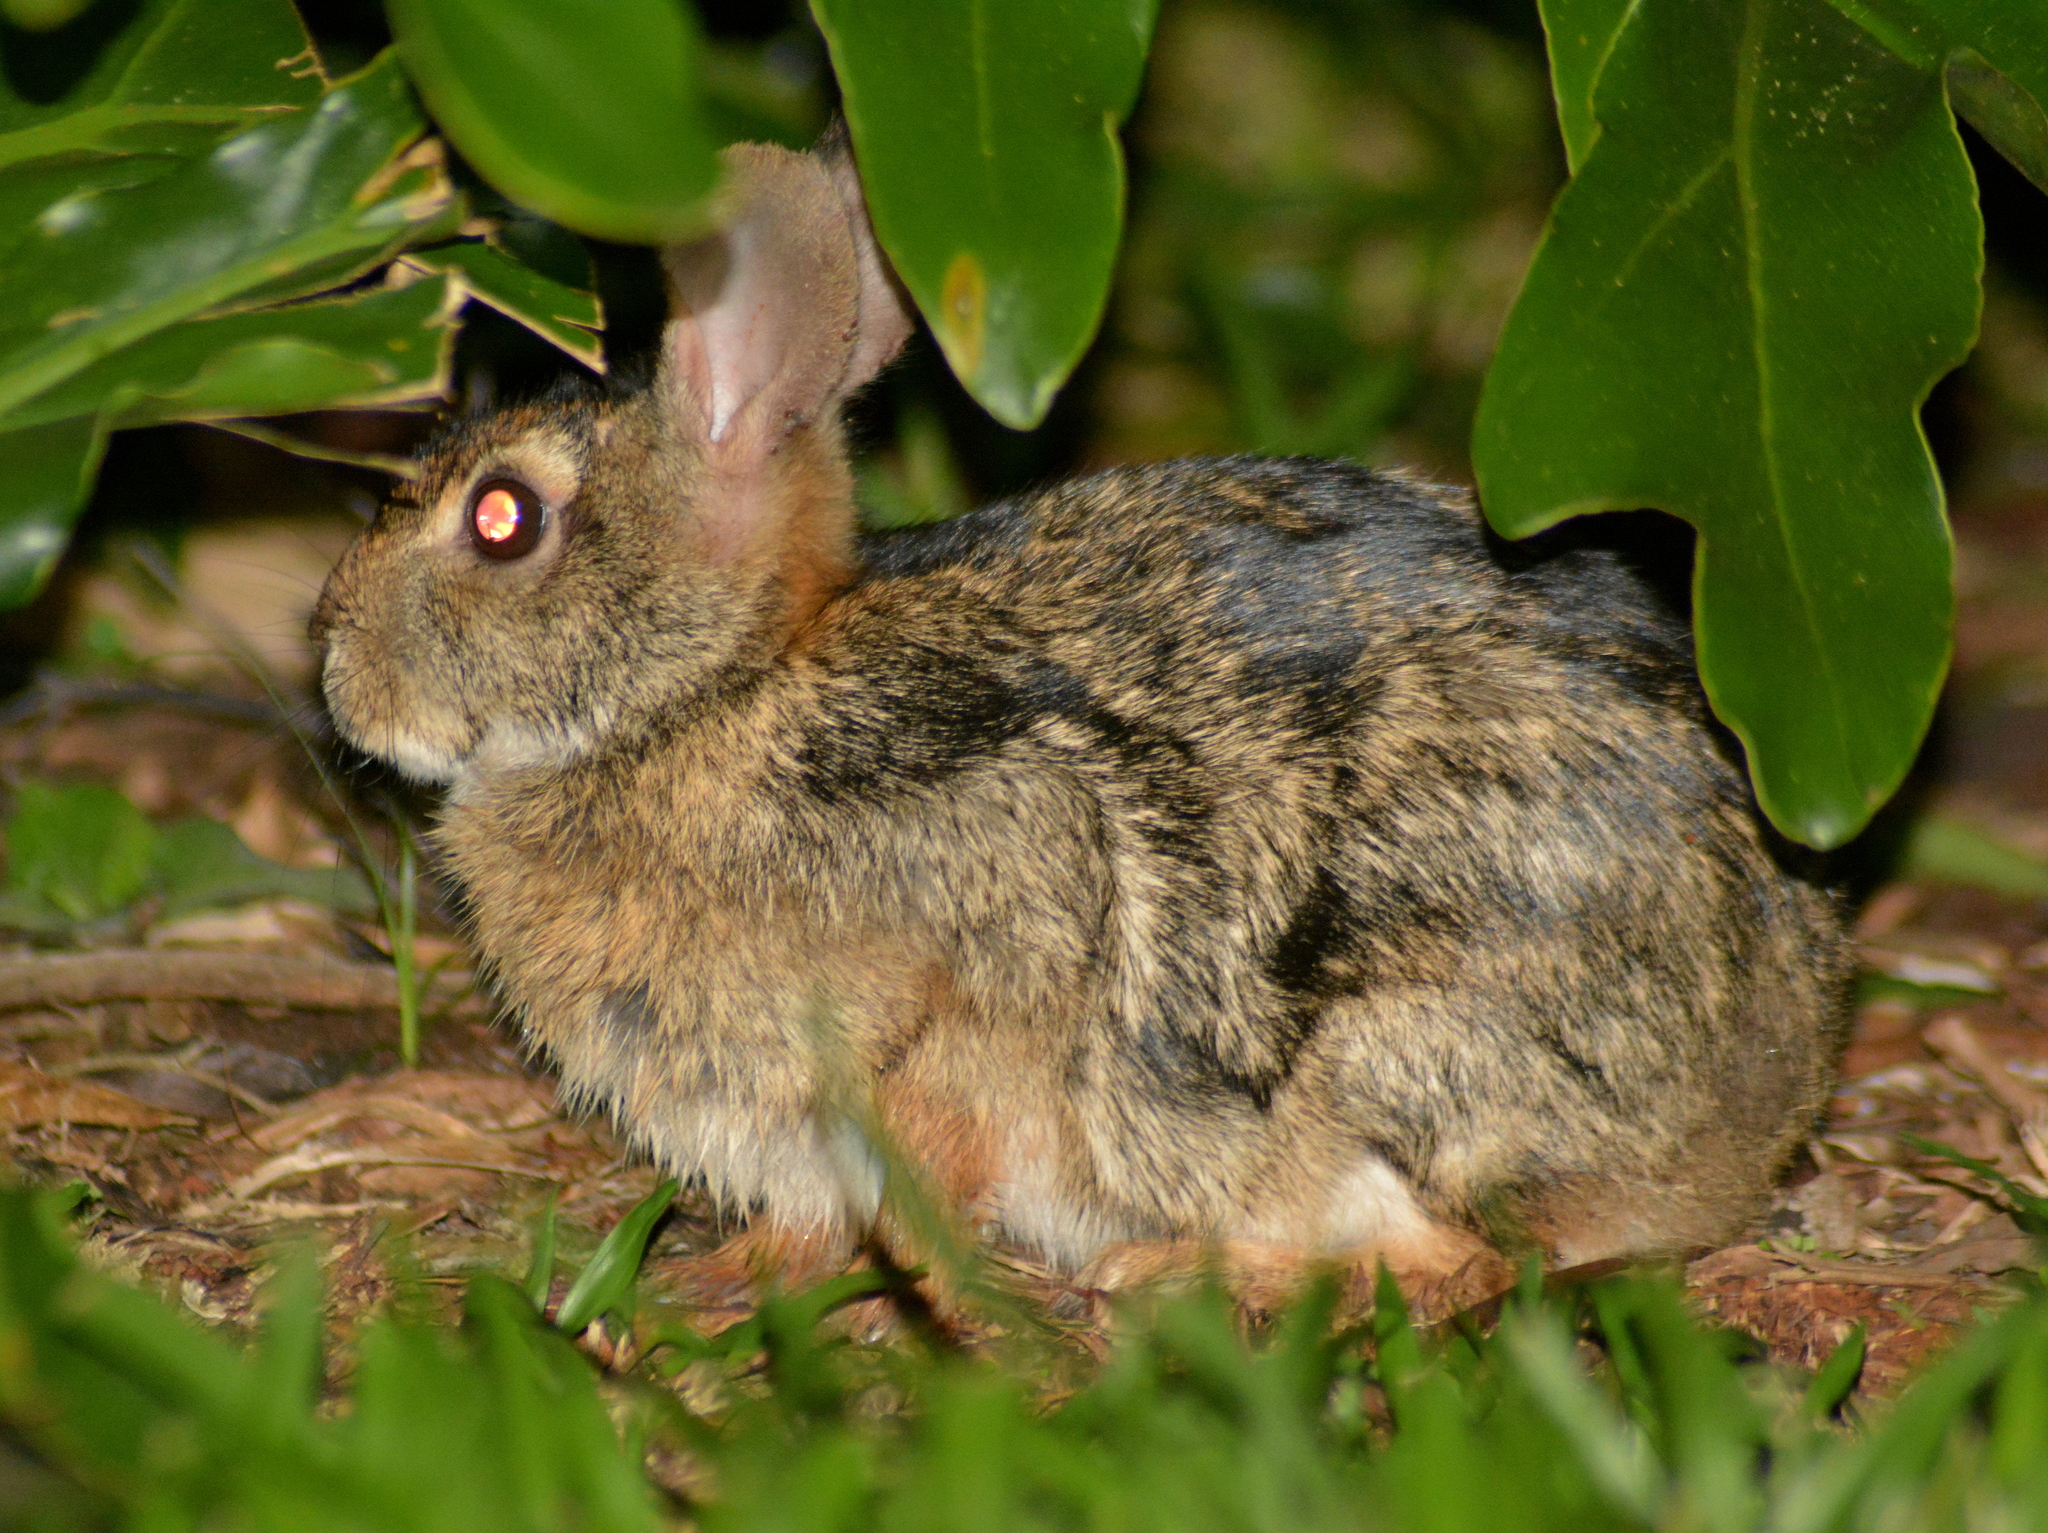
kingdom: Animalia
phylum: Chordata
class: Mammalia
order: Lagomorpha
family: Leporidae
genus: Sylvilagus
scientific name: Sylvilagus brasiliensis
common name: Tapeti
